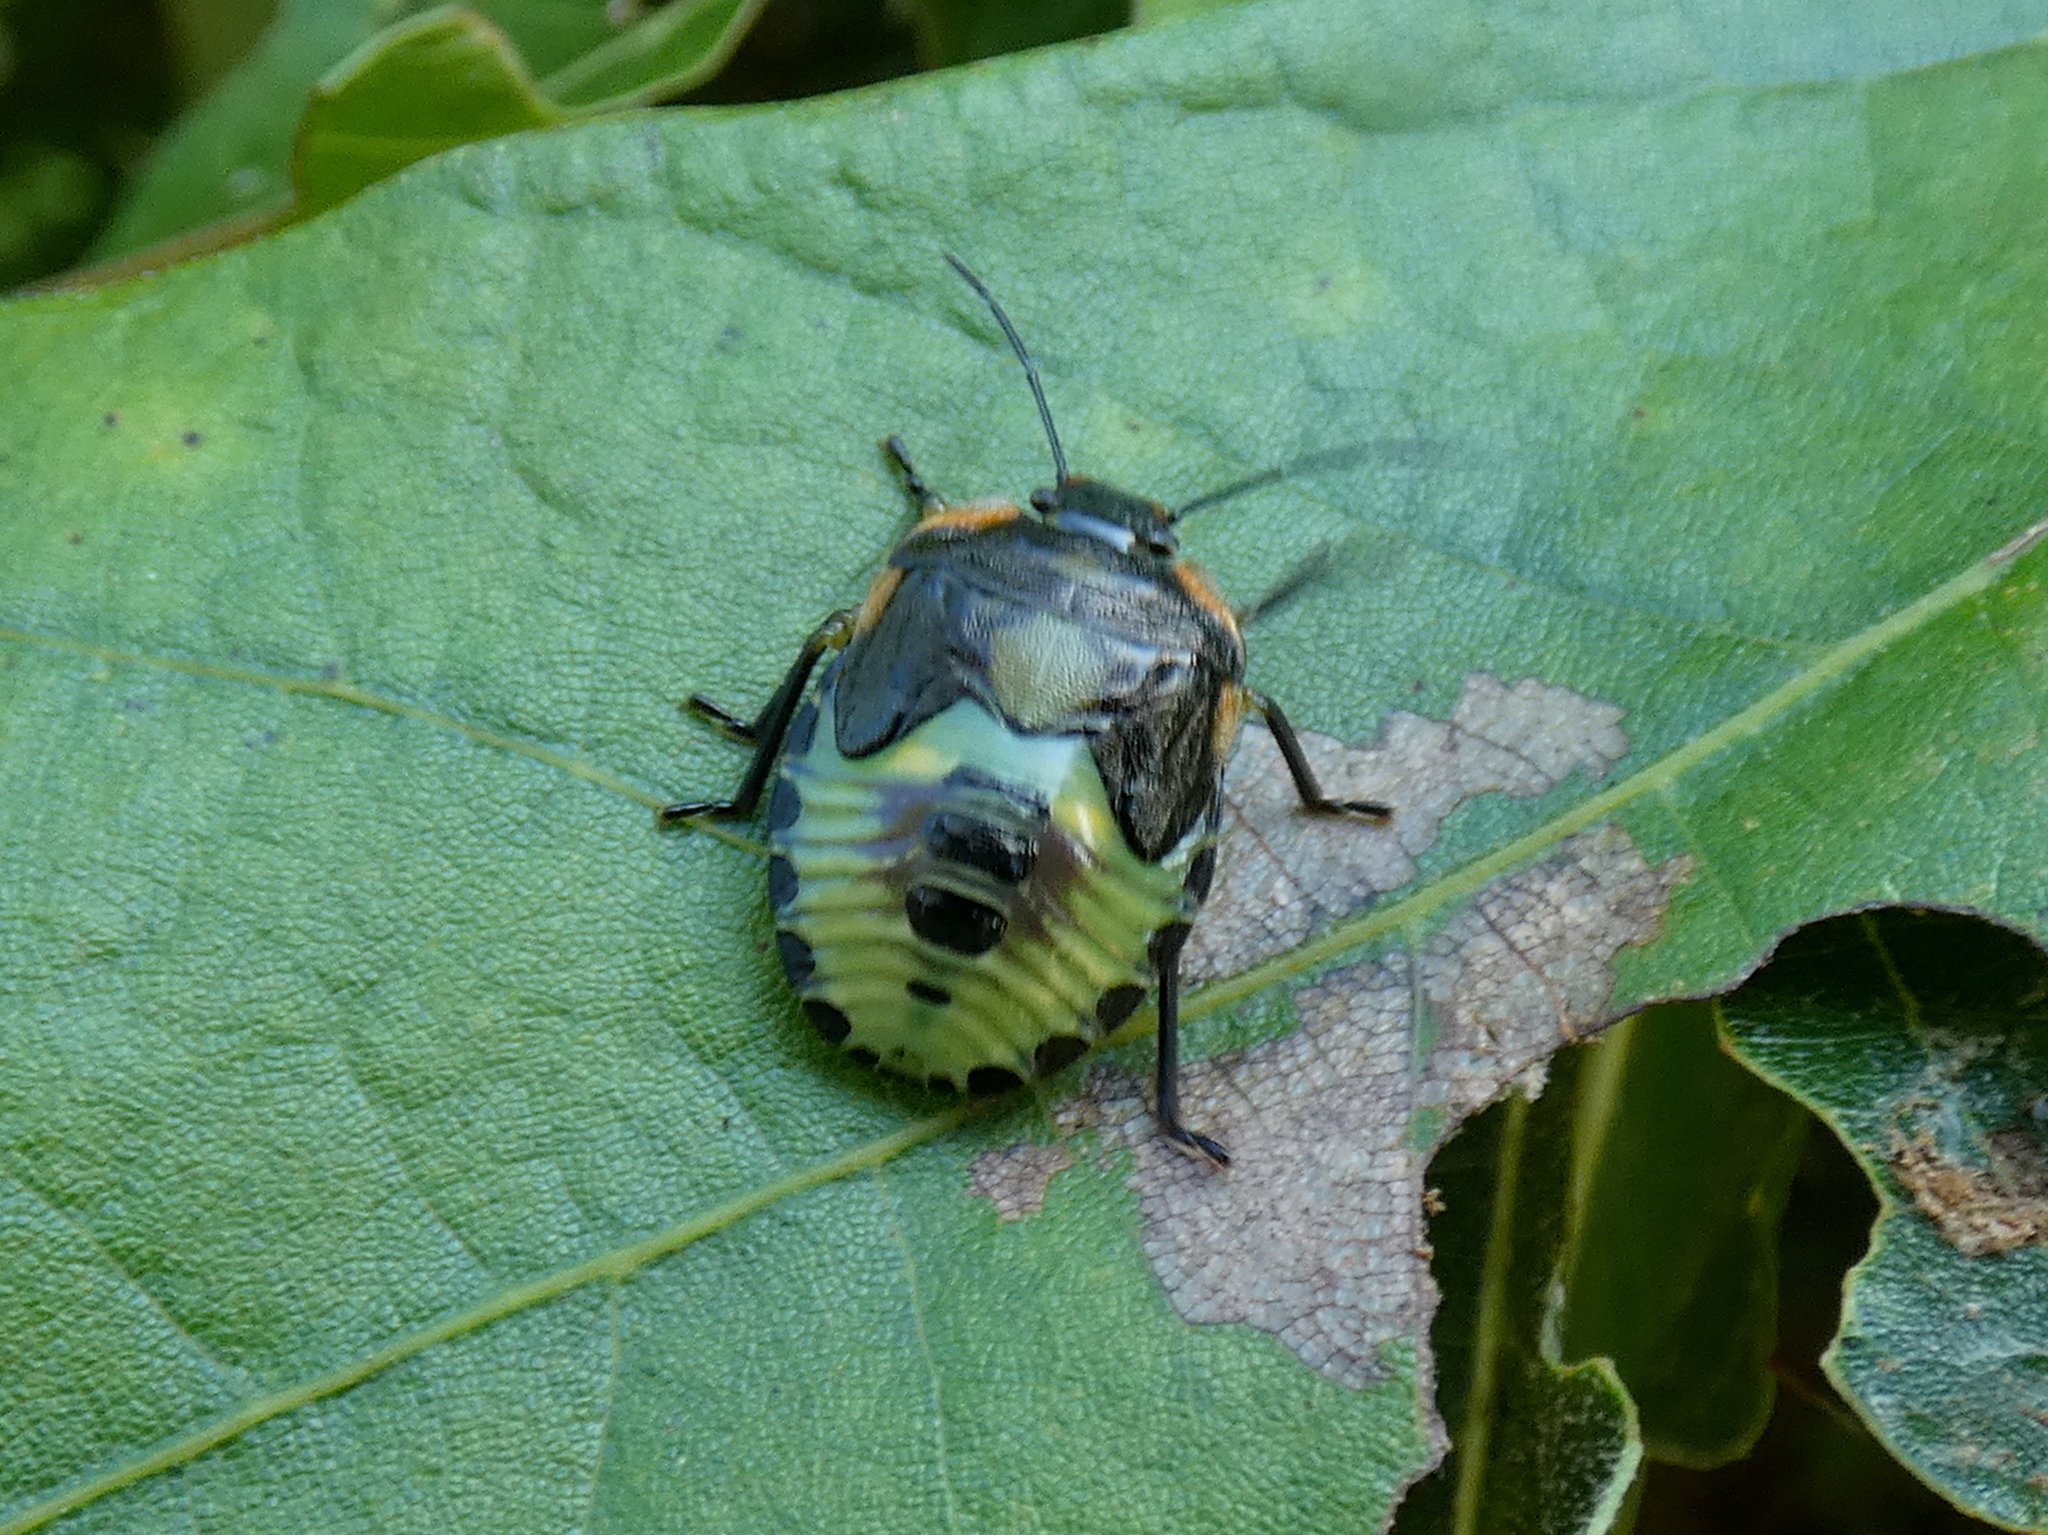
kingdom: Animalia
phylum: Arthropoda
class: Insecta
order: Hemiptera
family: Pentatomidae
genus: Chinavia
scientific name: Chinavia hilaris
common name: Green stink bug
